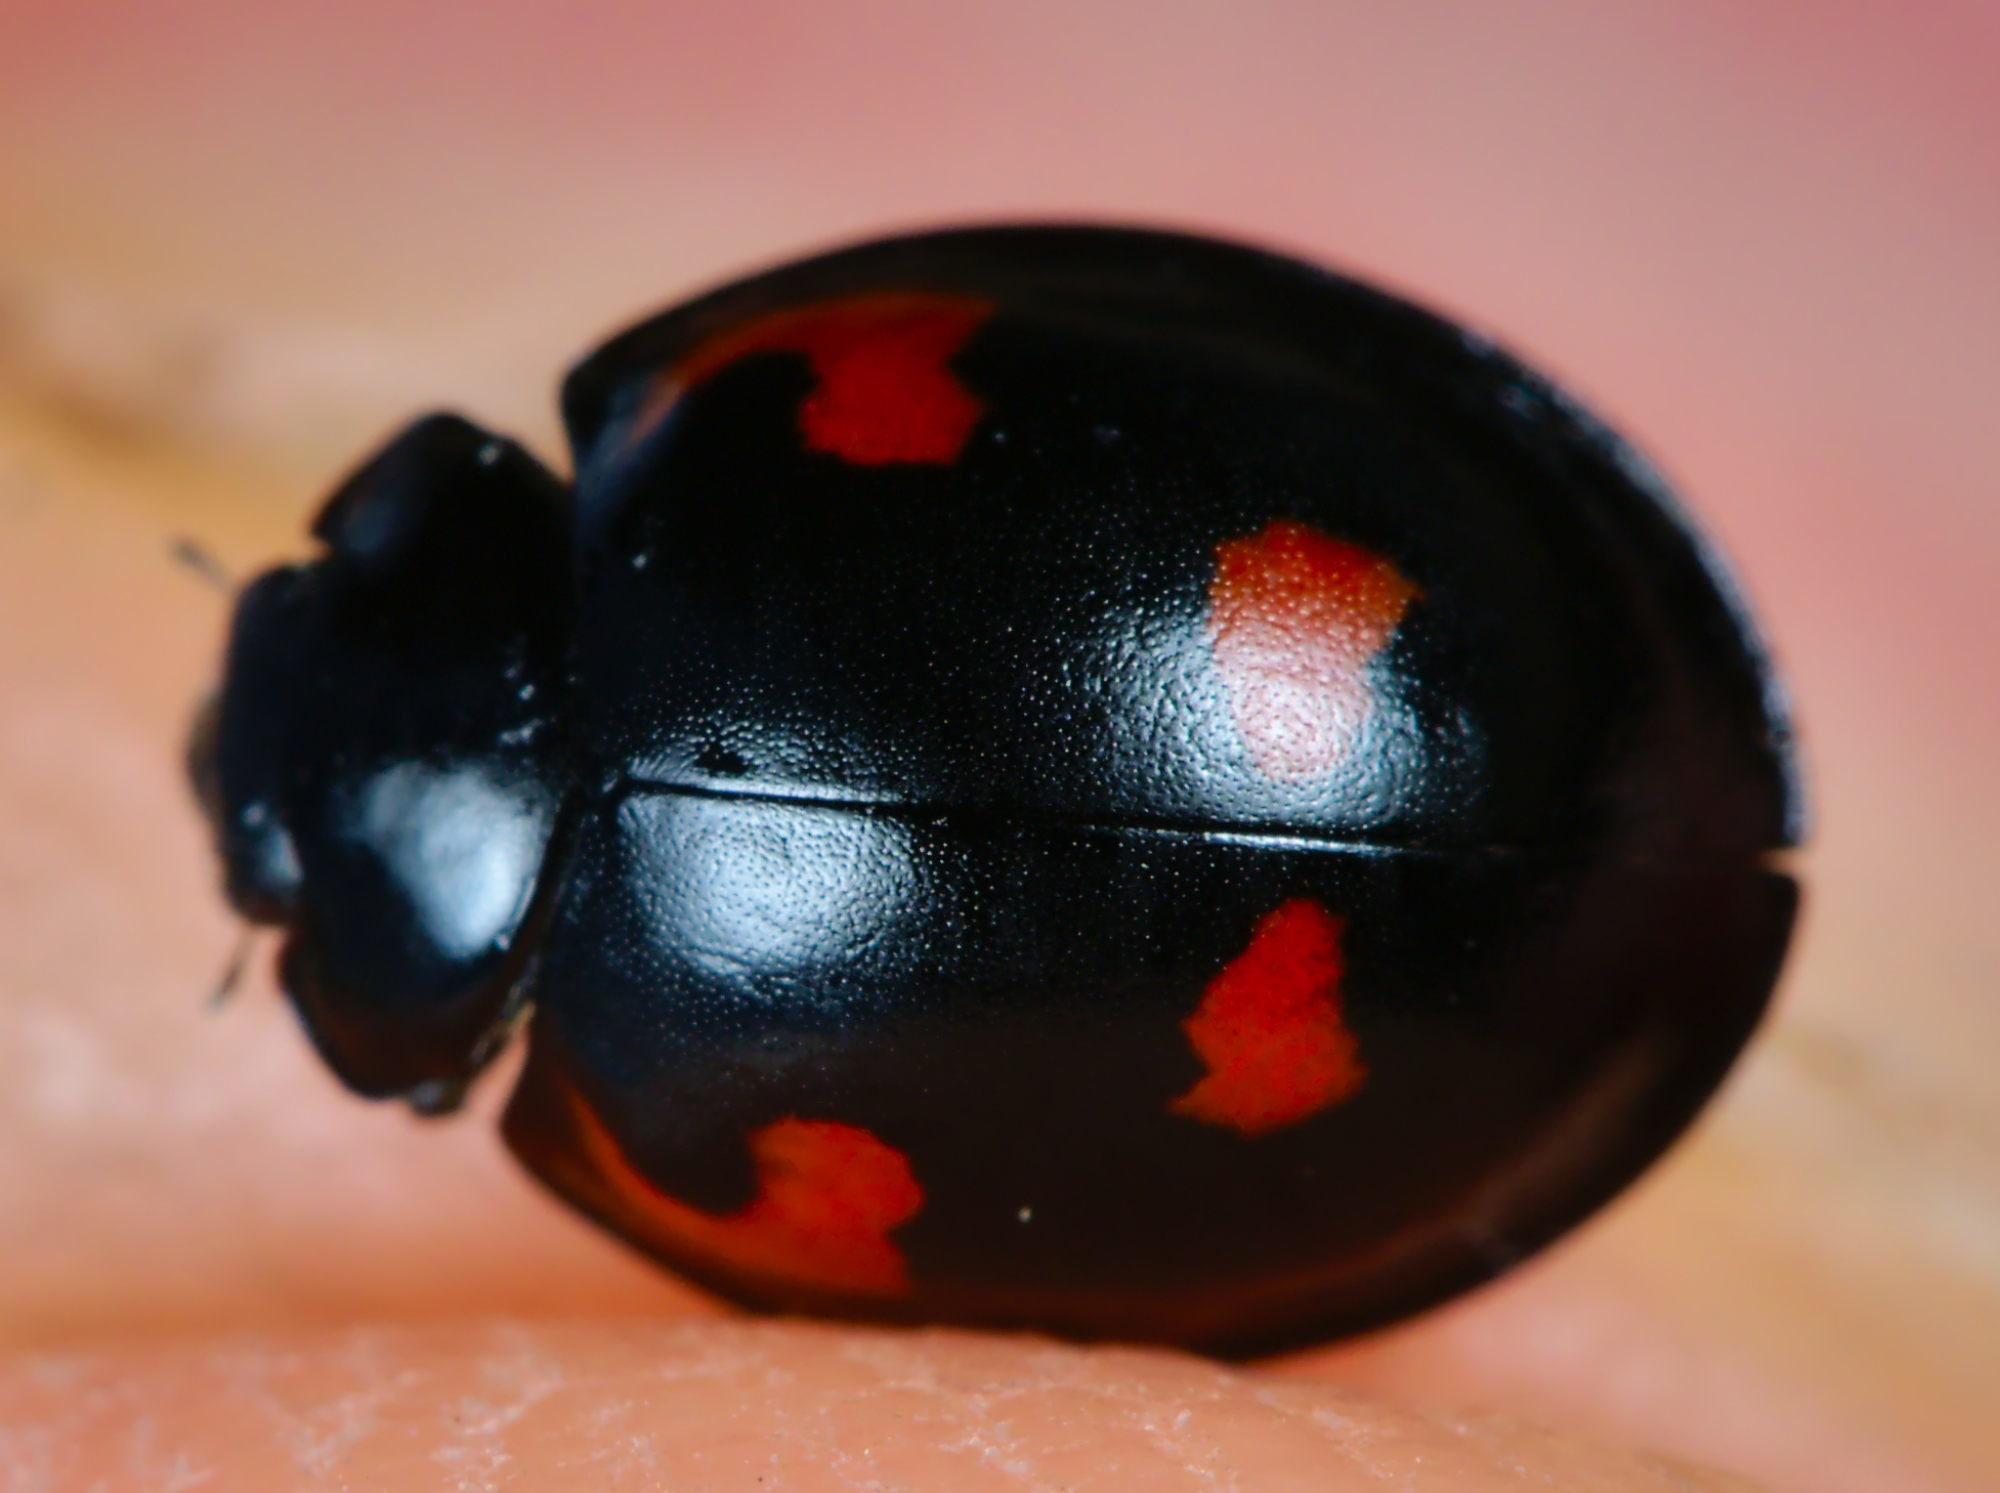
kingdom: Animalia
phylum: Arthropoda
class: Insecta
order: Coleoptera
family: Coccinellidae
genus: Brumus
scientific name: Brumus quadripustulatus
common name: Ladybird beetle
